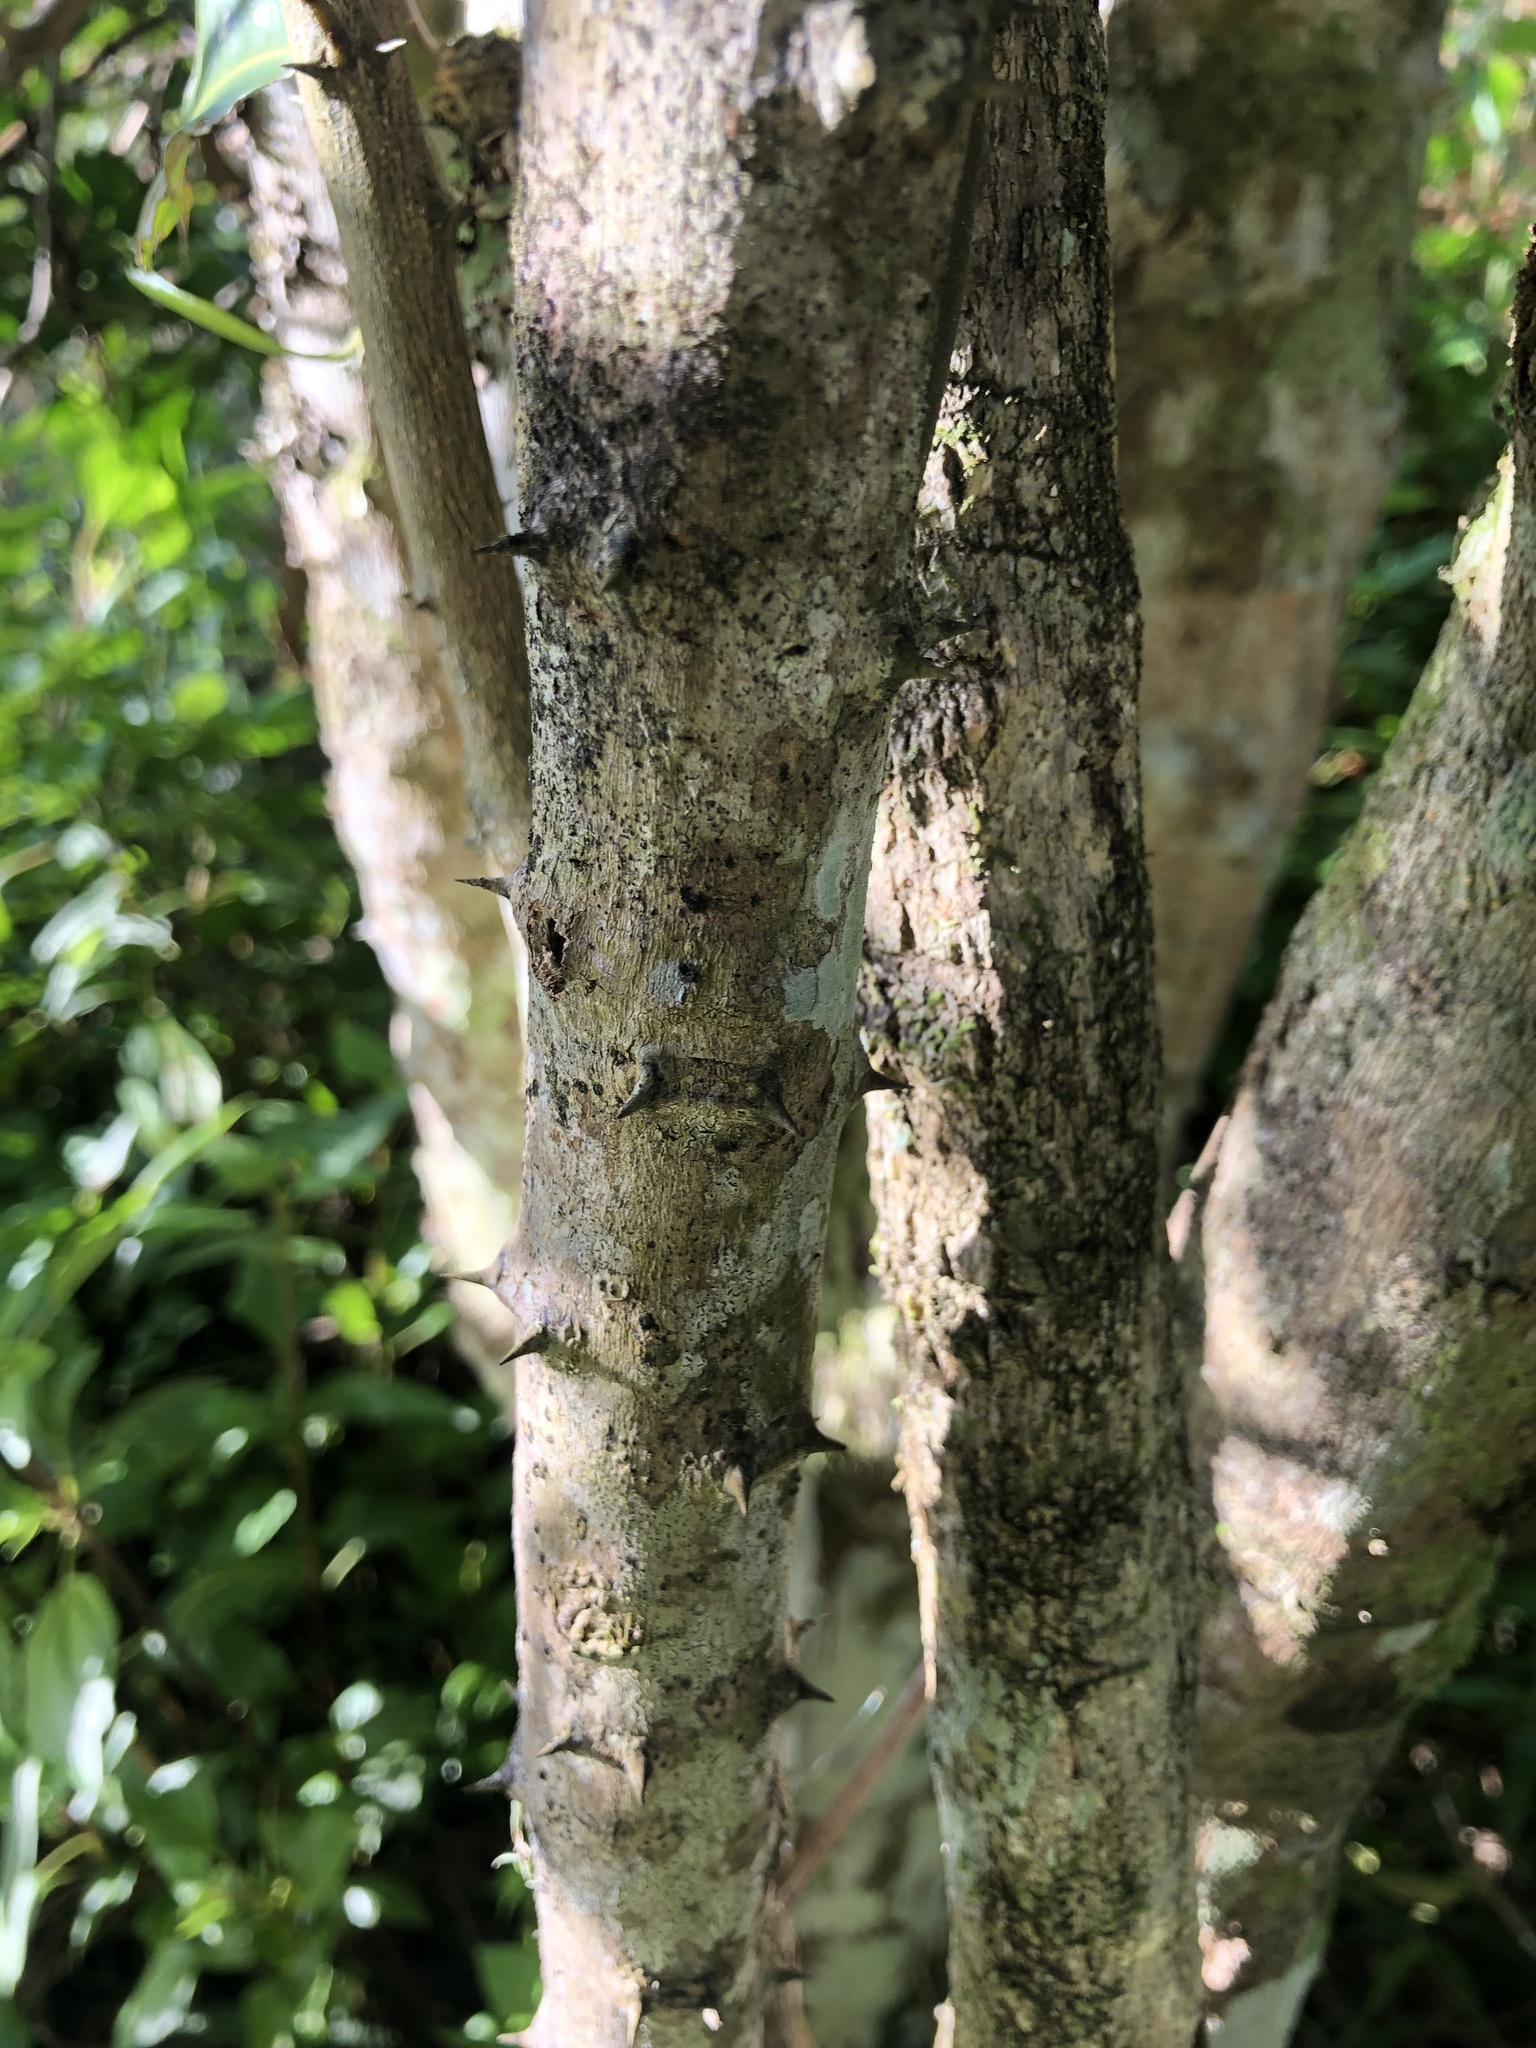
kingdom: Plantae
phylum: Tracheophyta
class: Magnoliopsida
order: Brassicales
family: Capparaceae
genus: Capparis
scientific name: Capparis arborea
